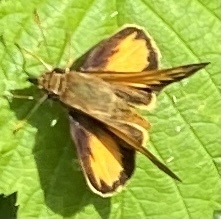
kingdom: Animalia
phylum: Arthropoda
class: Insecta
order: Lepidoptera
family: Hesperiidae
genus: Lon
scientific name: Lon zabulon
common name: Zabulon skipper
